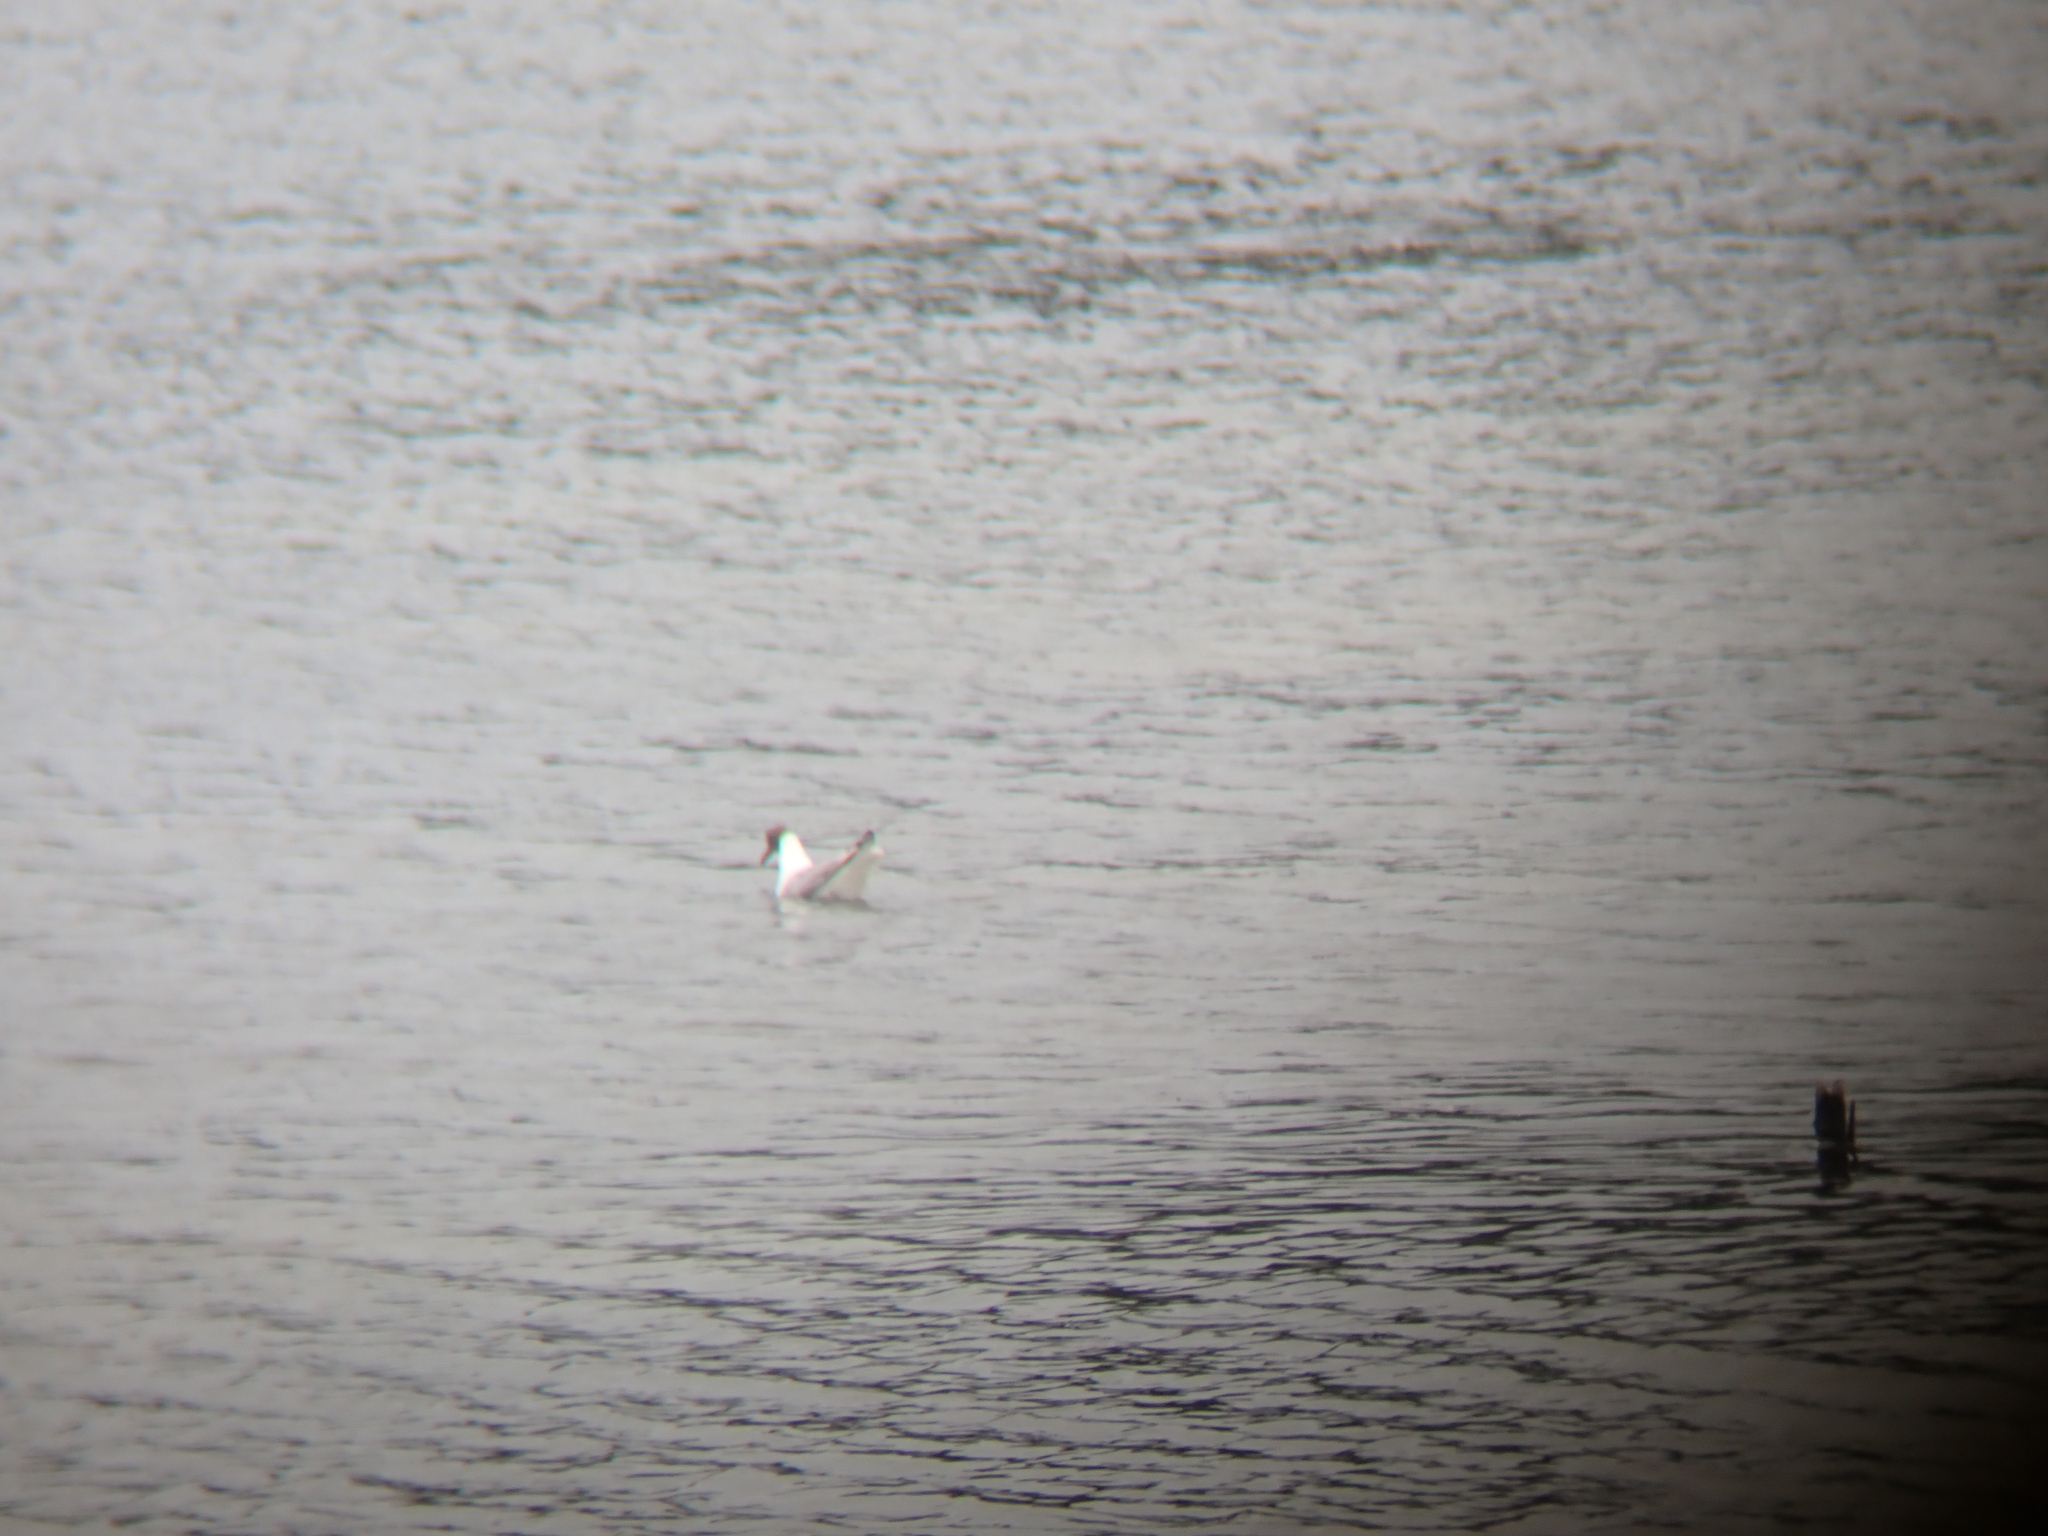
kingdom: Animalia
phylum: Chordata
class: Aves
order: Charadriiformes
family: Laridae
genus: Chroicocephalus
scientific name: Chroicocephalus ridibundus
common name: Black-headed gull
